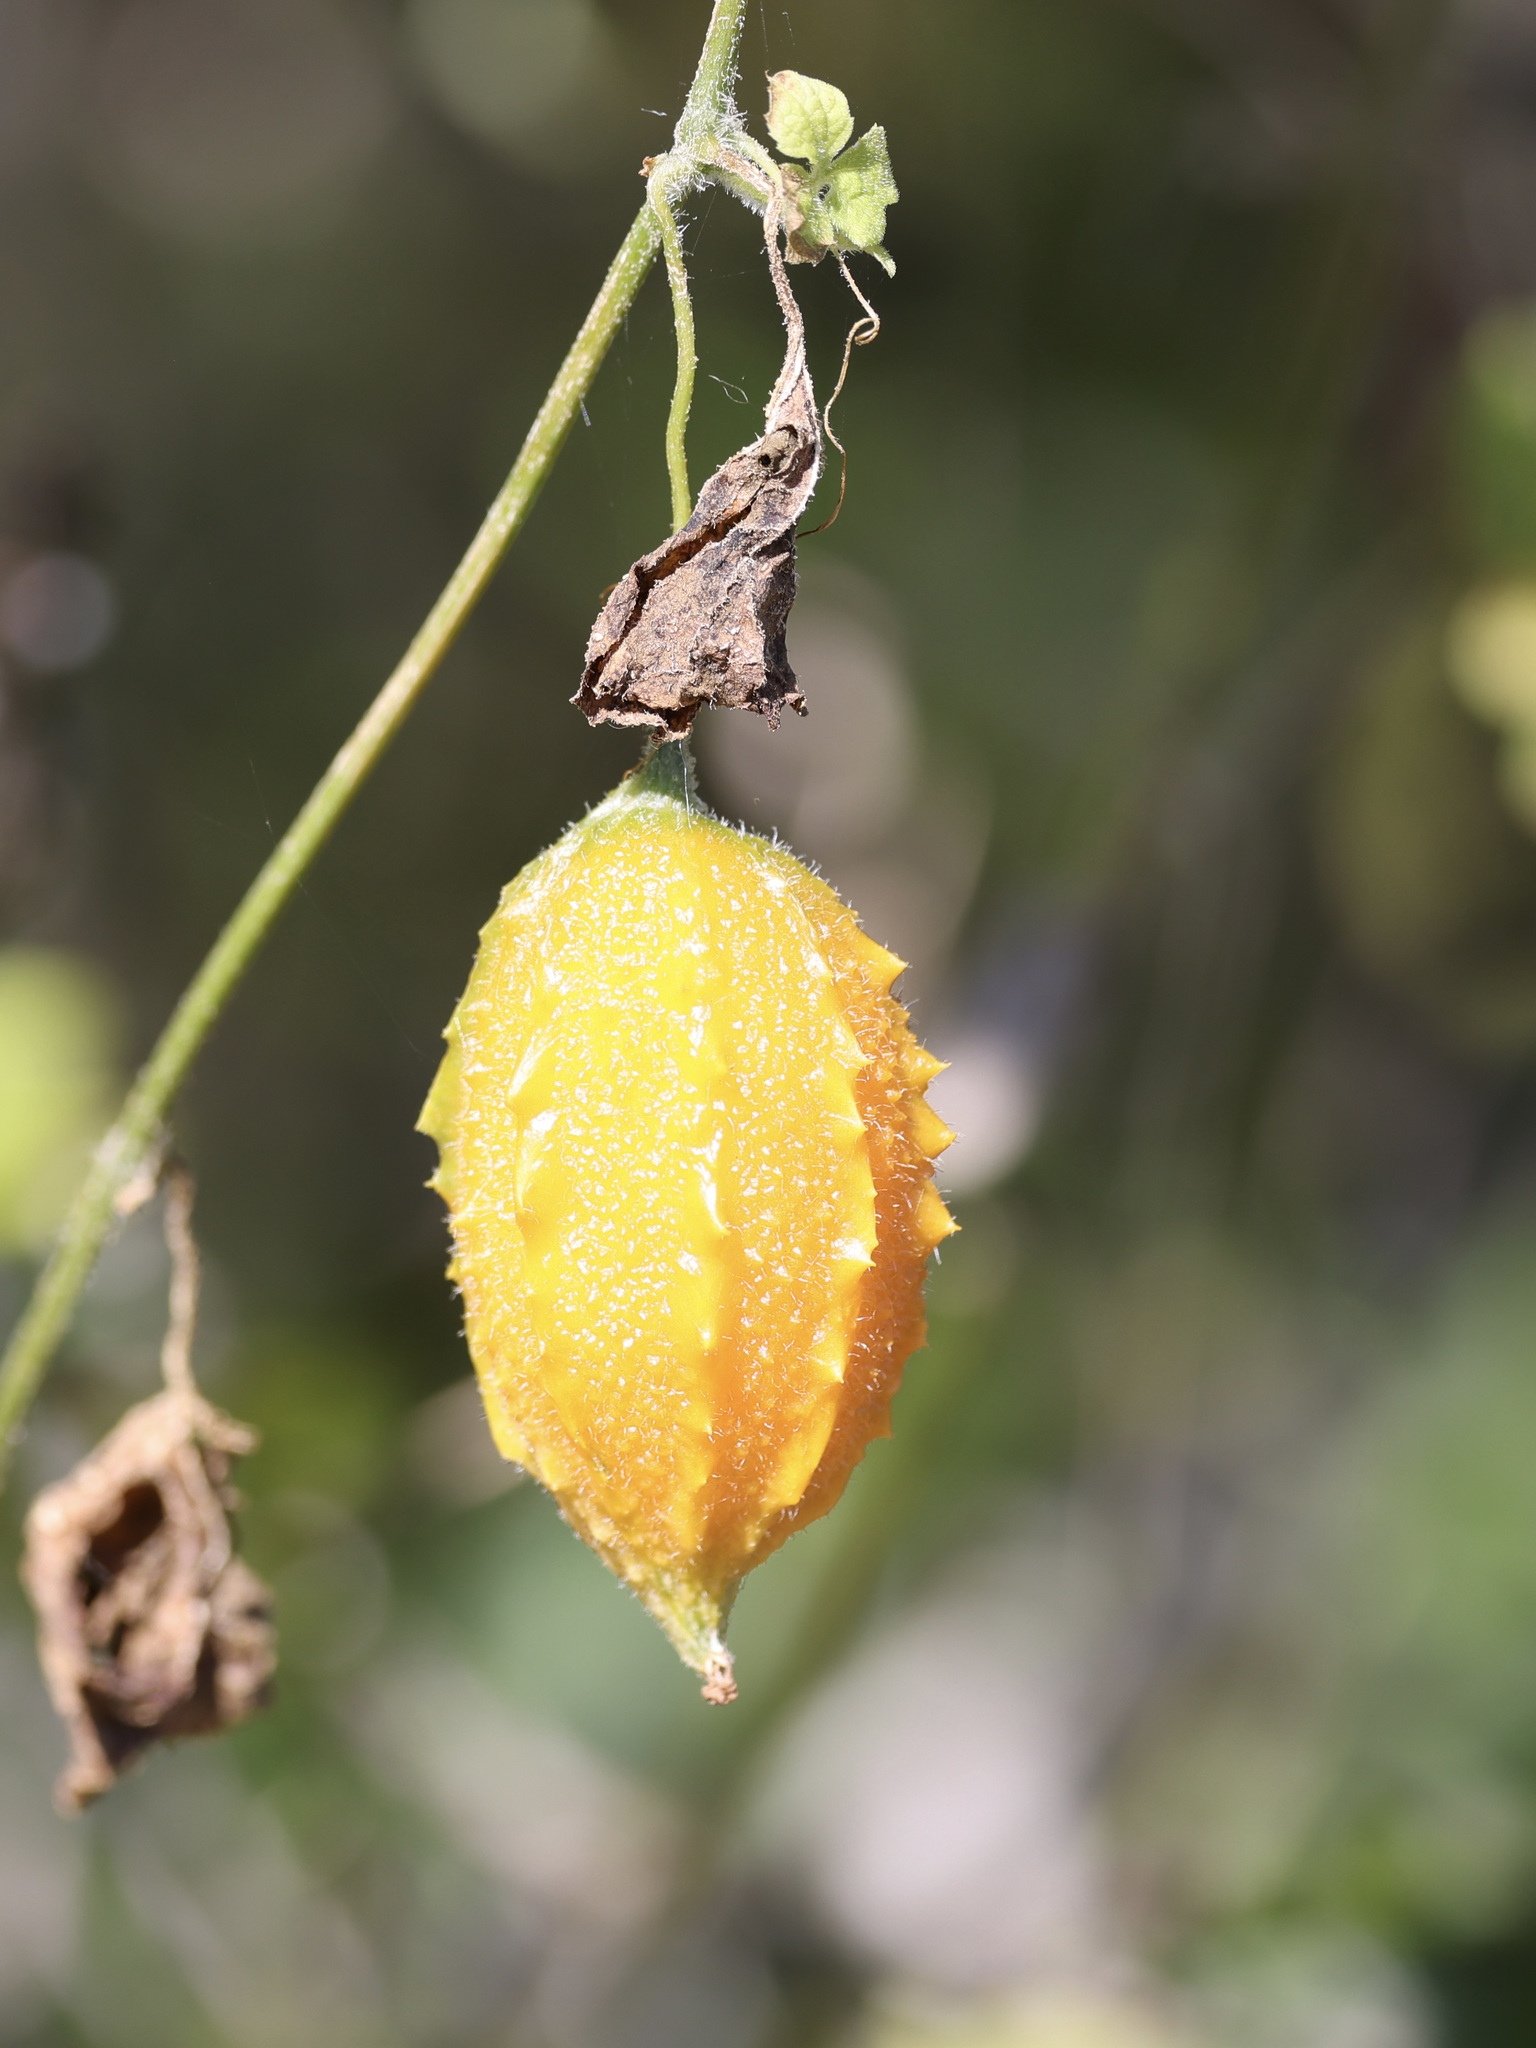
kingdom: Plantae
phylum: Tracheophyta
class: Magnoliopsida
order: Cucurbitales
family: Cucurbitaceae
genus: Momordica
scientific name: Momordica charantia
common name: Balsampear
